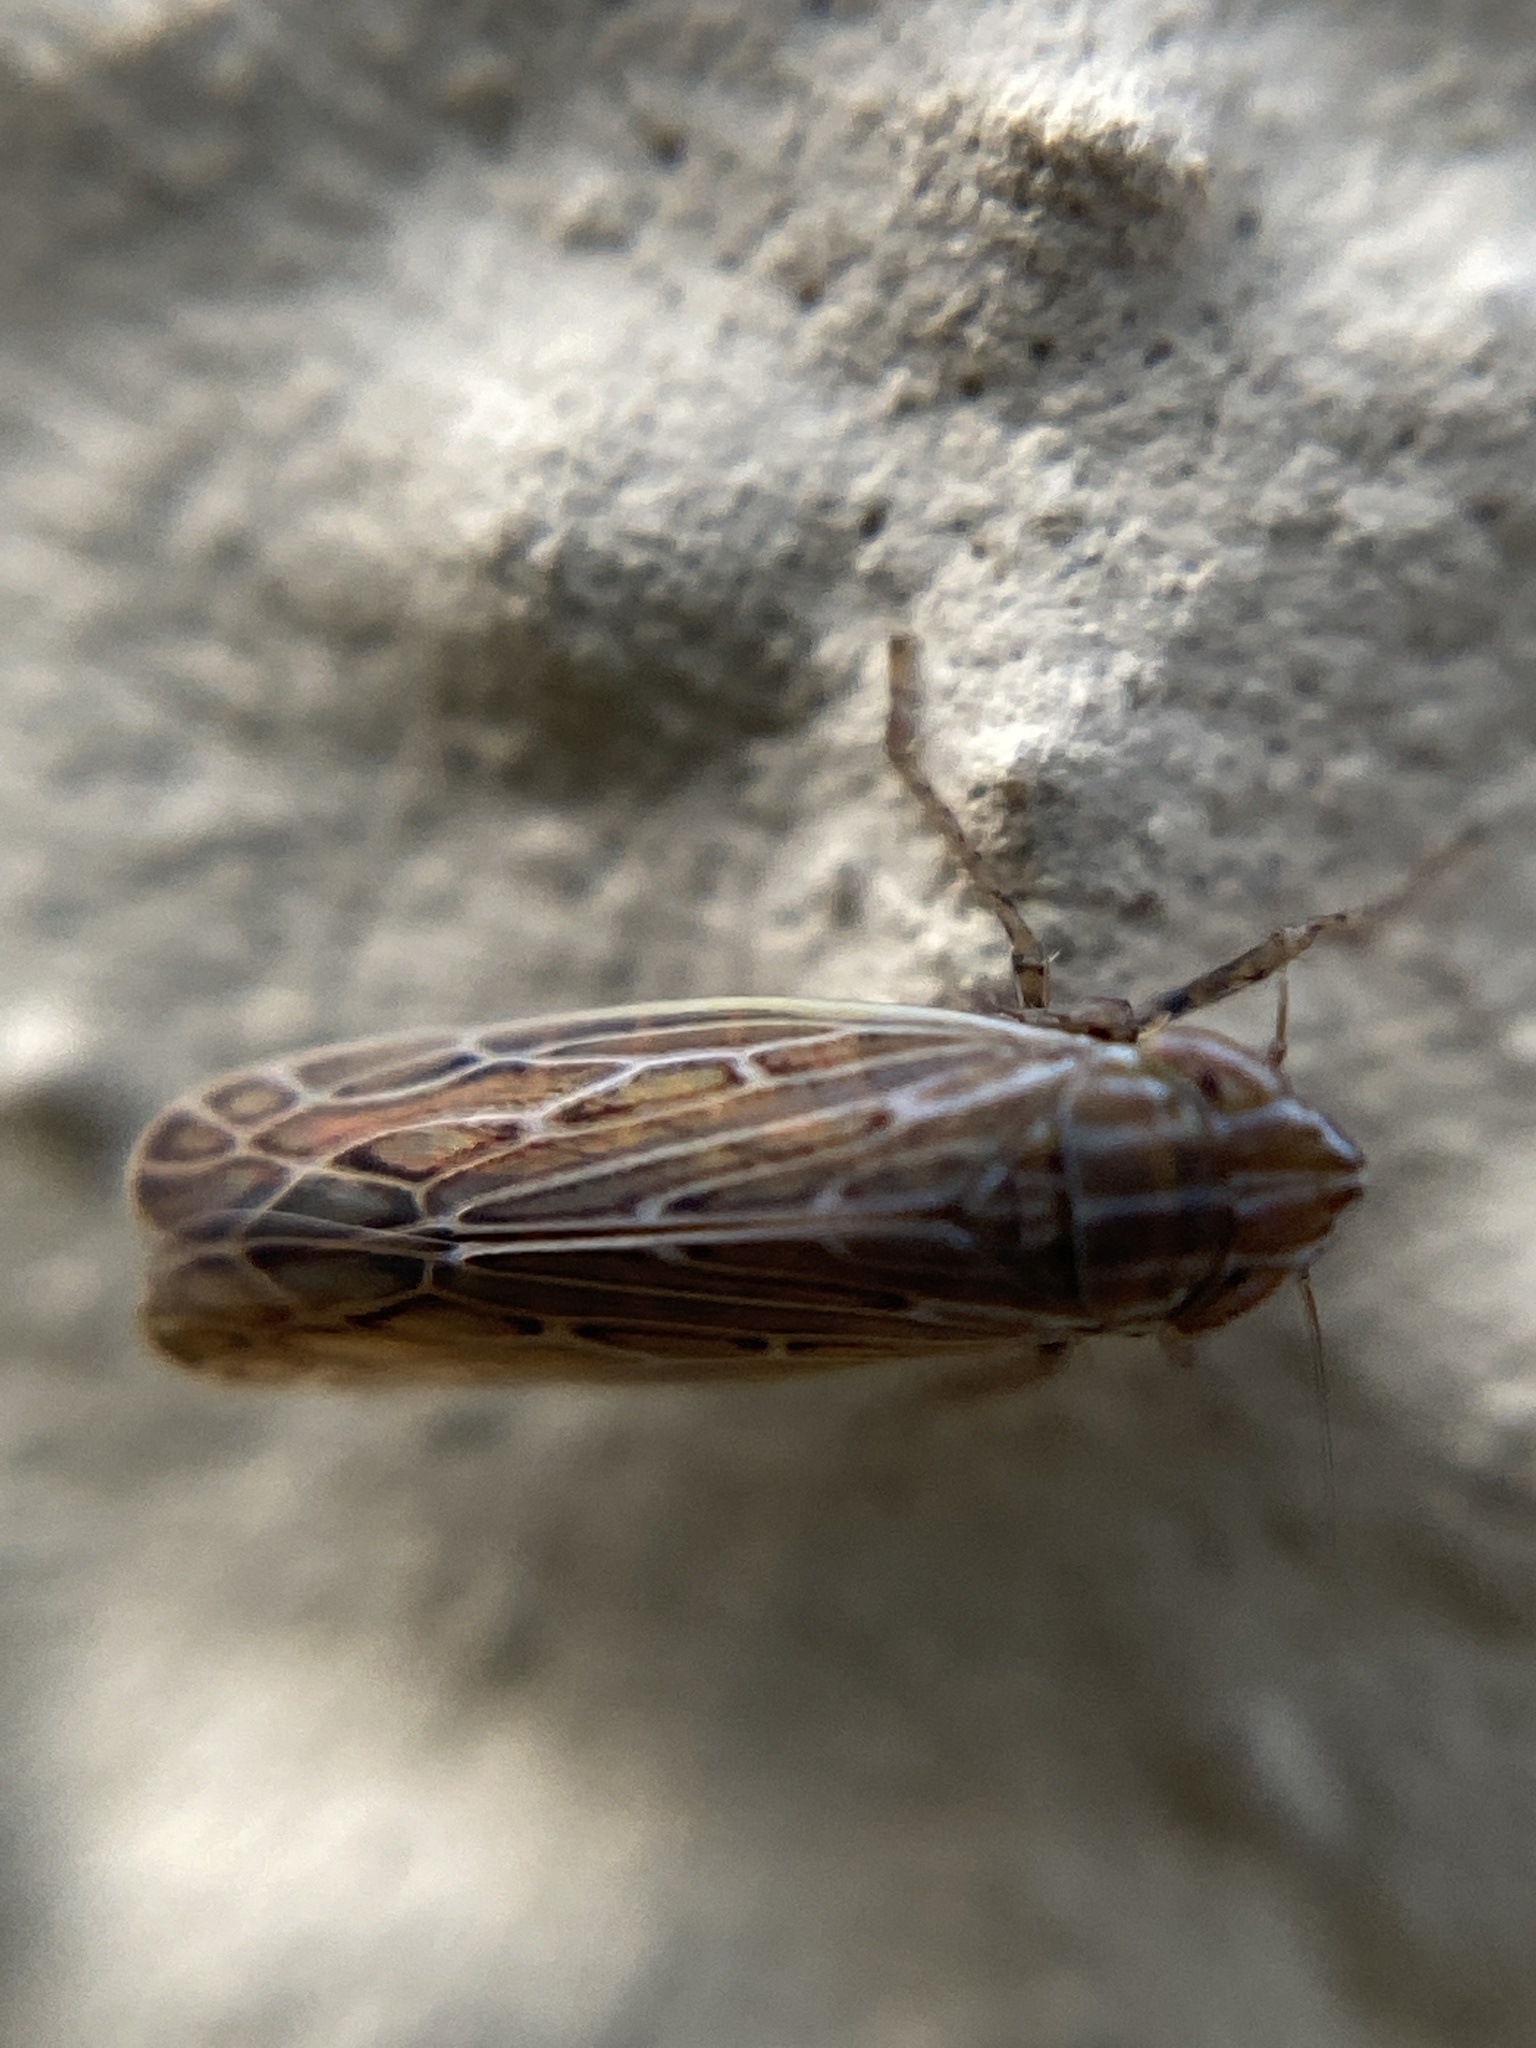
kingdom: Animalia
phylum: Arthropoda
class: Insecta
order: Hemiptera
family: Cicadellidae
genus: Arocephalus
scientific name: Arocephalus longiceps
